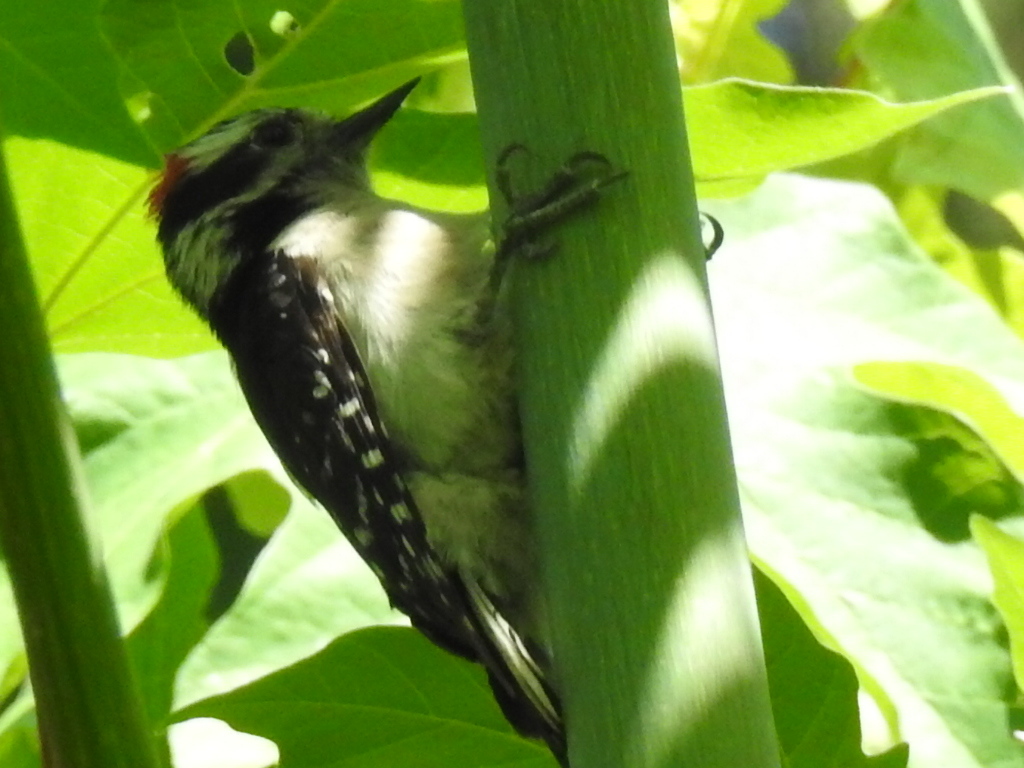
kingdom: Animalia
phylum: Chordata
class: Aves
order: Piciformes
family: Picidae
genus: Leuconotopicus
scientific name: Leuconotopicus villosus
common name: Hairy woodpecker
